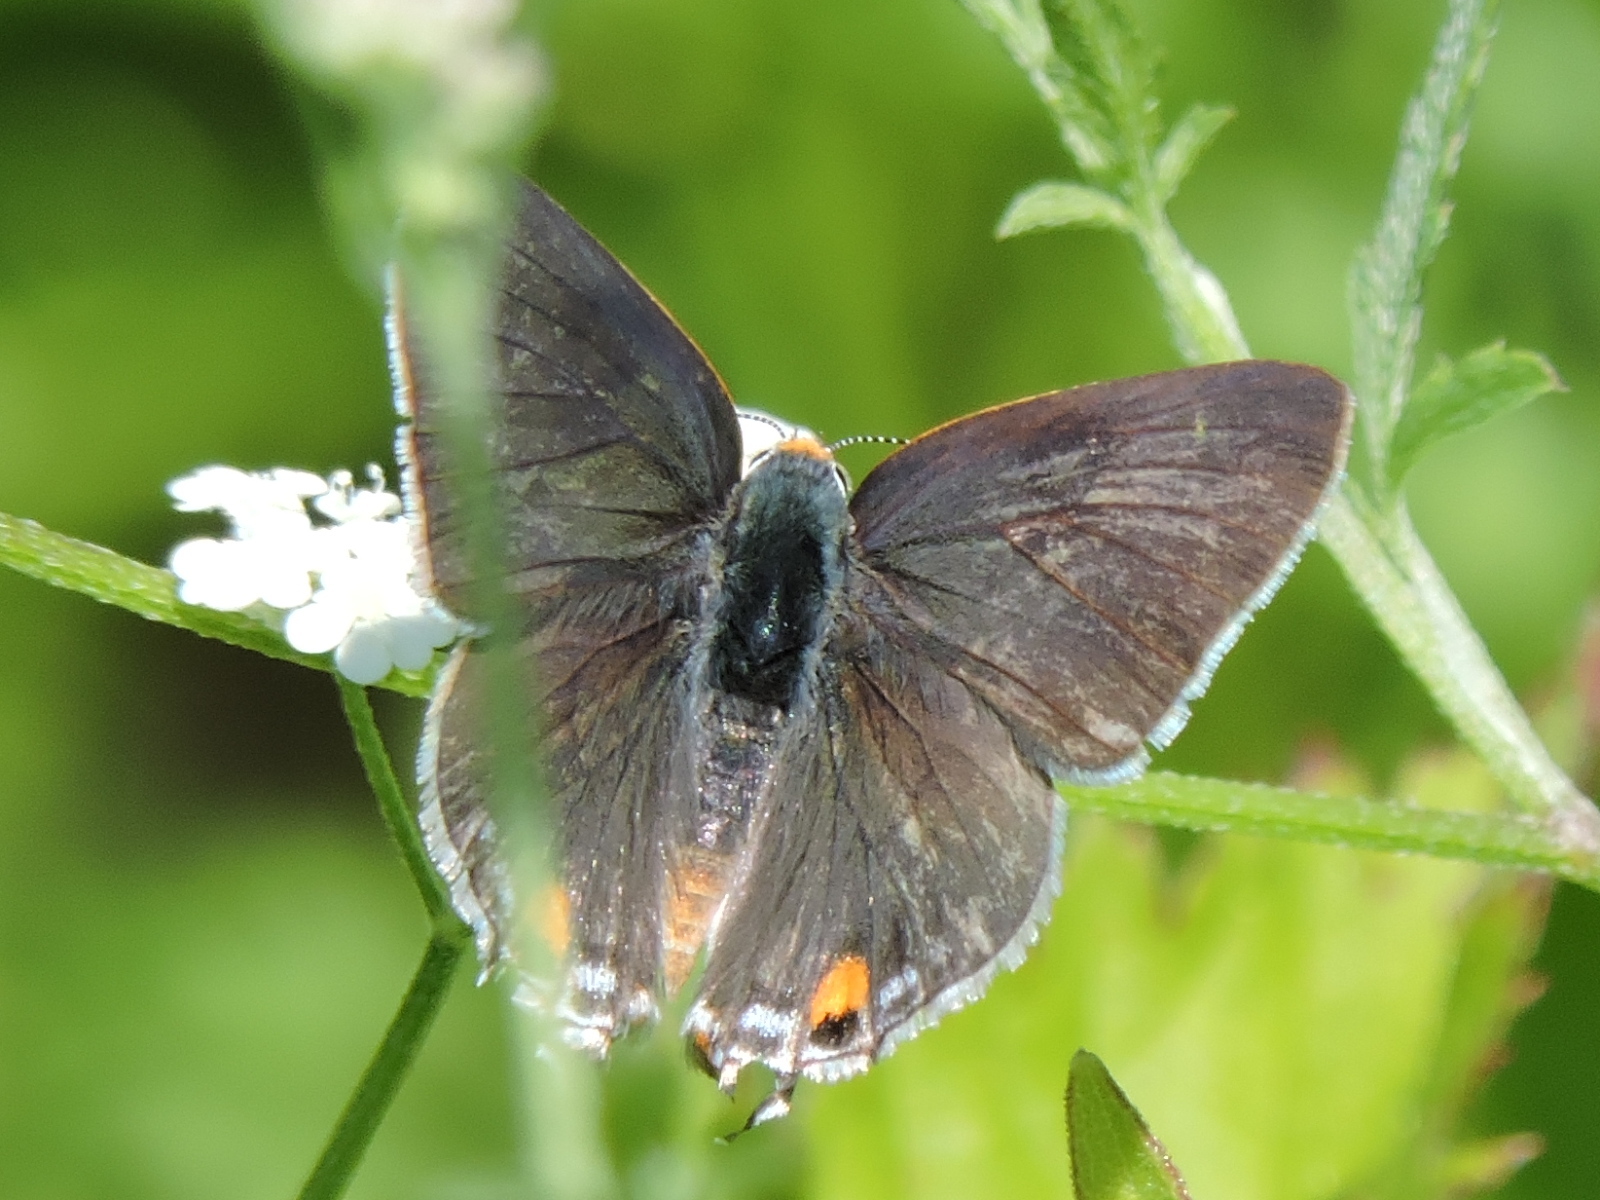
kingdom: Animalia
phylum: Arthropoda
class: Insecta
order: Lepidoptera
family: Lycaenidae
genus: Strymon
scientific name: Strymon melinus
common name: Gray hairstreak
